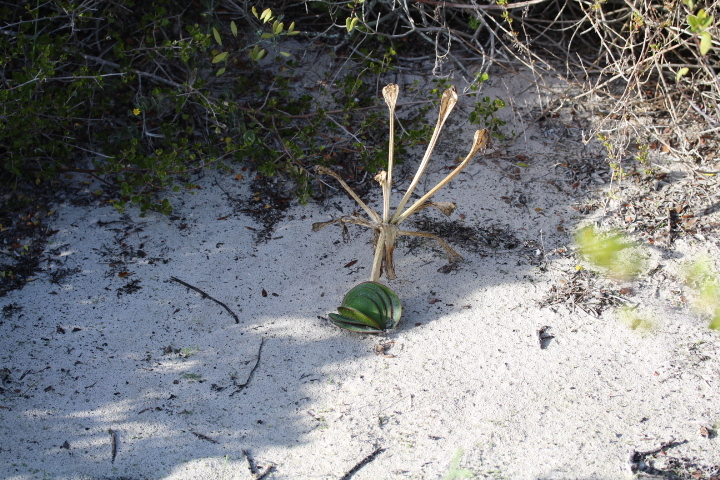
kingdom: Plantae
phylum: Tracheophyta
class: Liliopsida
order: Asparagales
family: Amaryllidaceae
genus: Brunsvigia
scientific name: Brunsvigia orientalis
